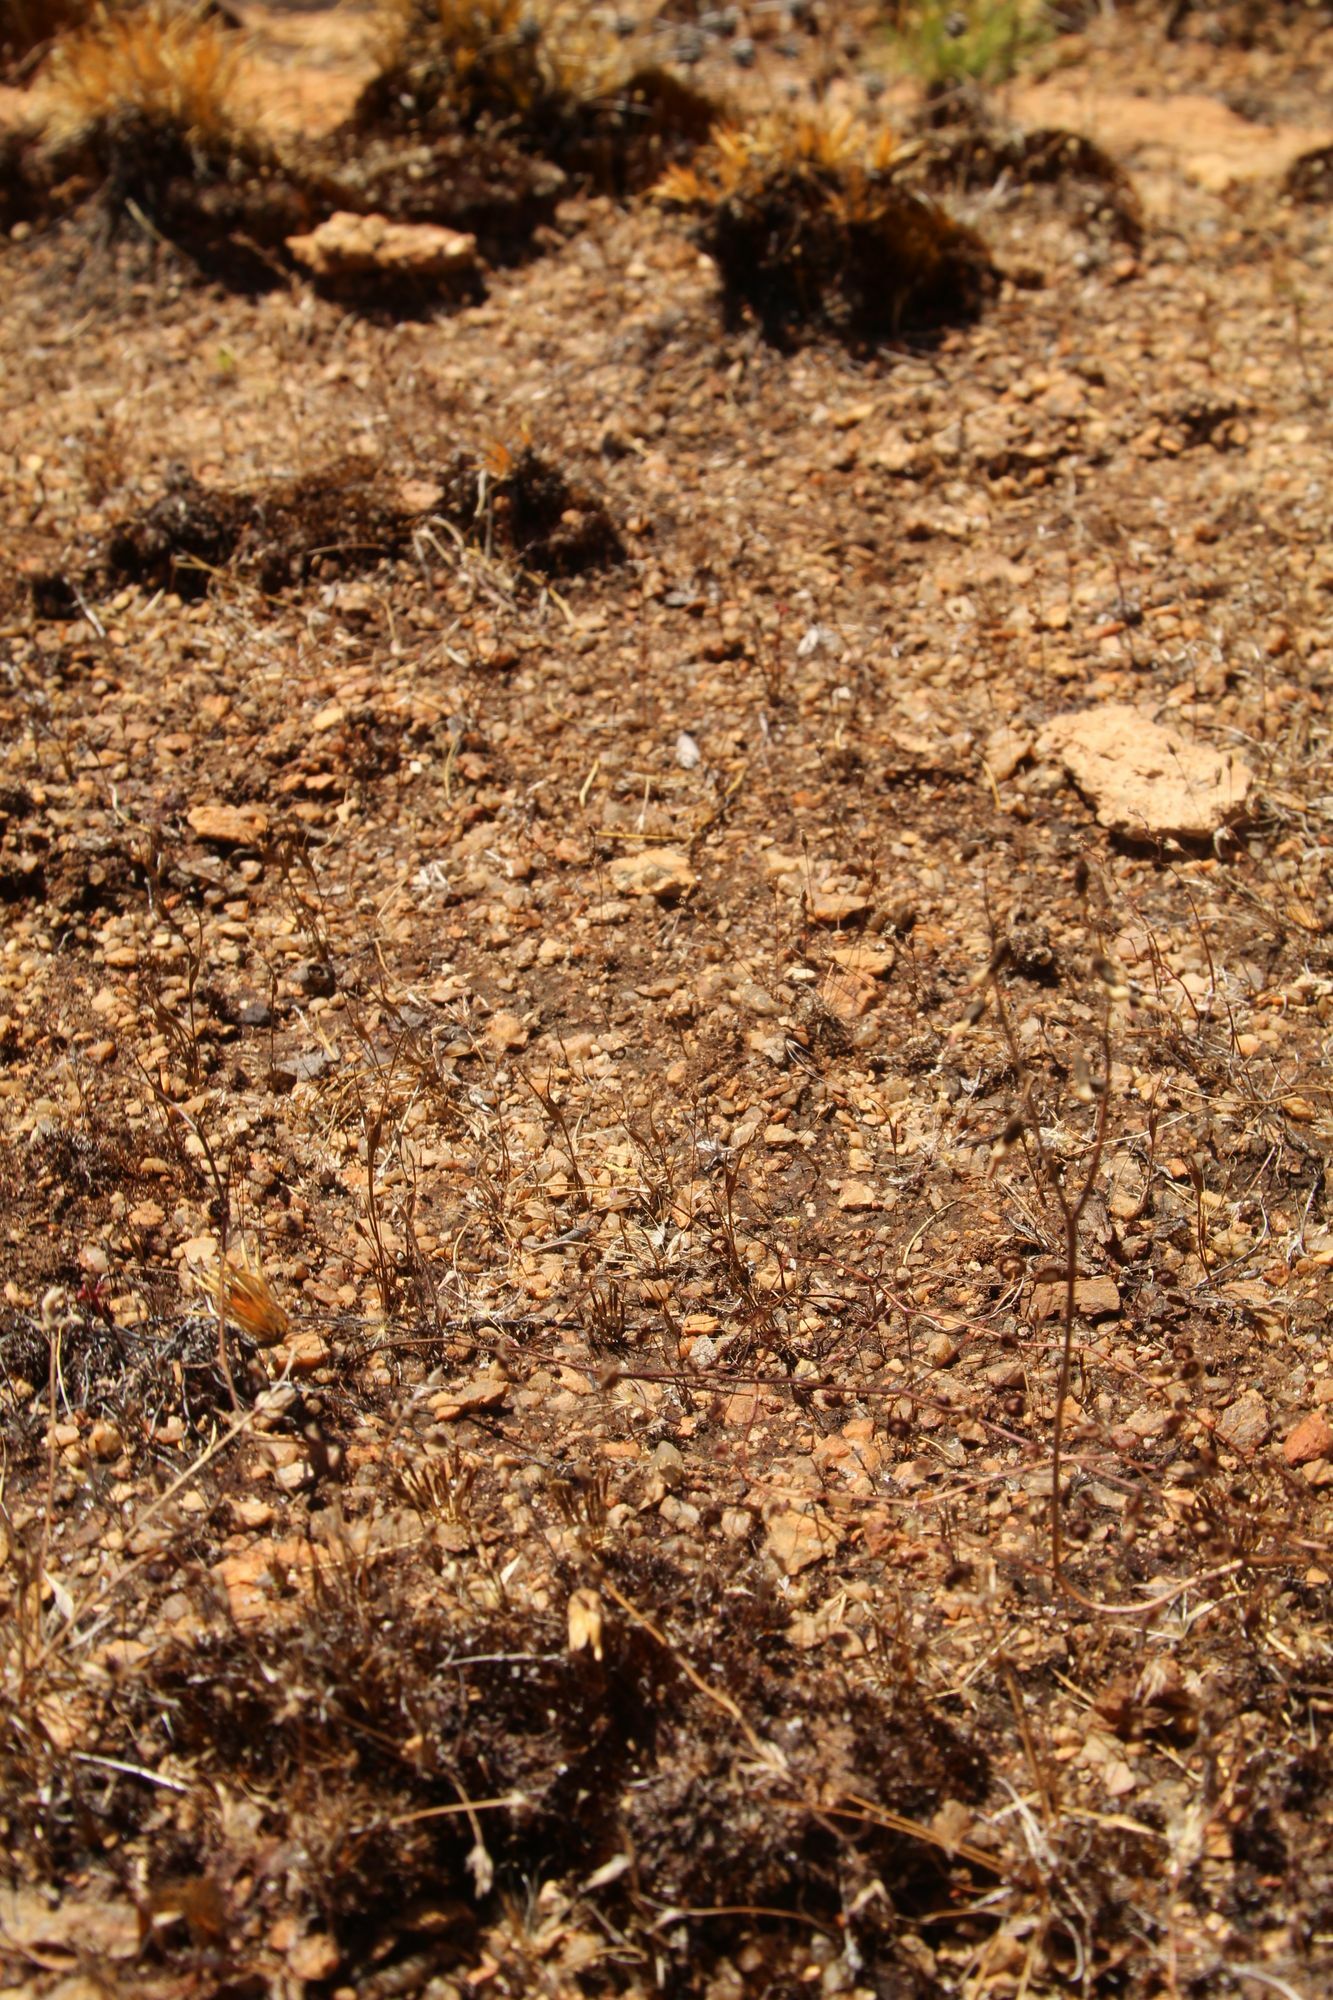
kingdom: Plantae
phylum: Tracheophyta
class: Magnoliopsida
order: Caryophyllales
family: Droseraceae
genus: Drosera
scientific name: Drosera stricticaulis
